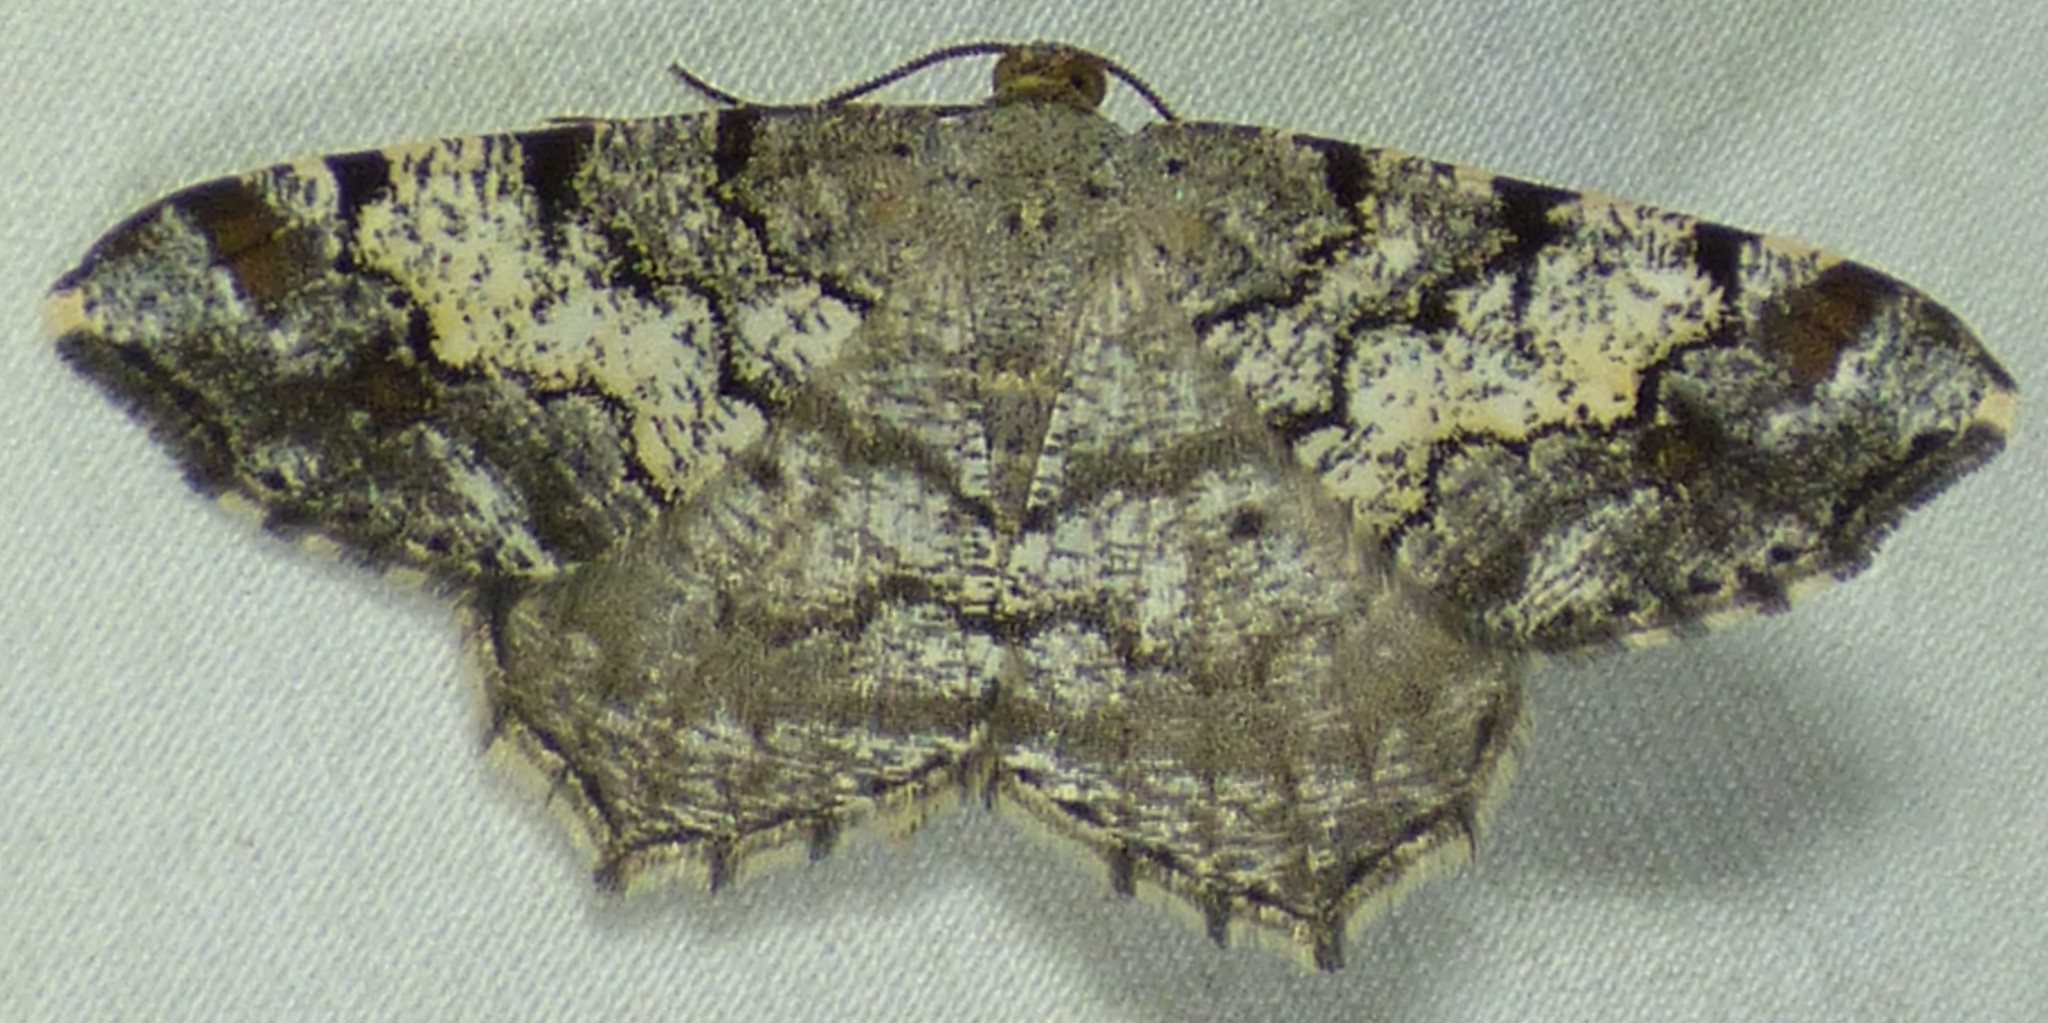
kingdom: Animalia
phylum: Arthropoda
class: Insecta
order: Lepidoptera
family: Geometridae
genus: Macaria
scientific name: Macaria granitata
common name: Granite moth
